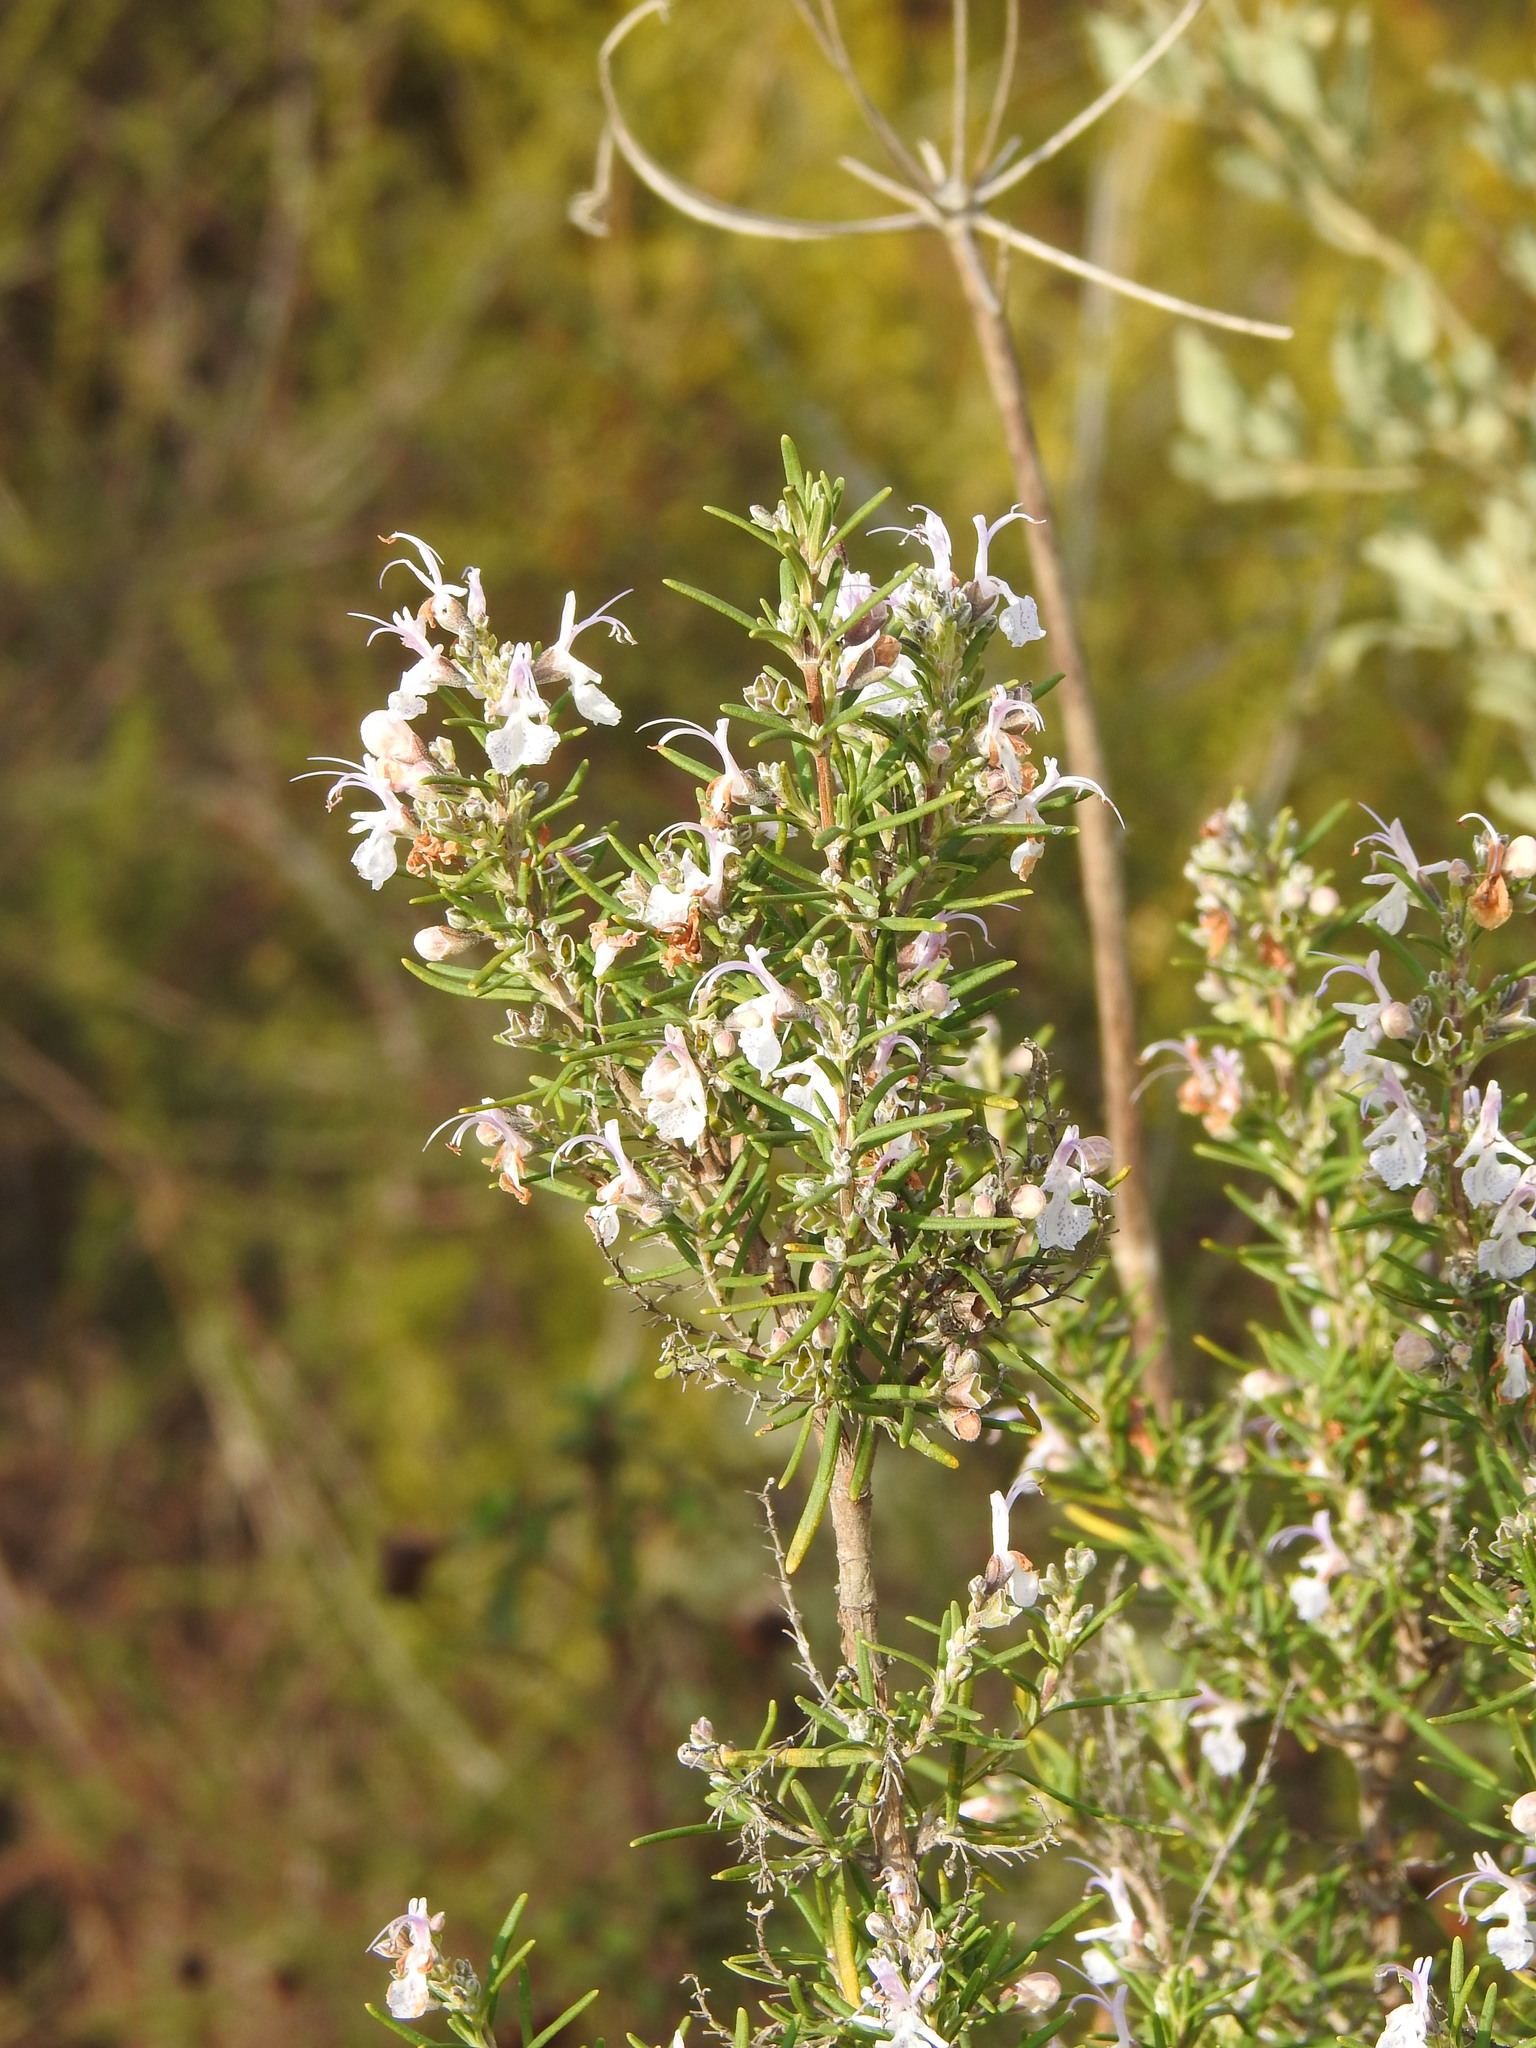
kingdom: Plantae
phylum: Tracheophyta
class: Magnoliopsida
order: Lamiales
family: Lamiaceae
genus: Salvia
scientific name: Salvia rosmarinus
